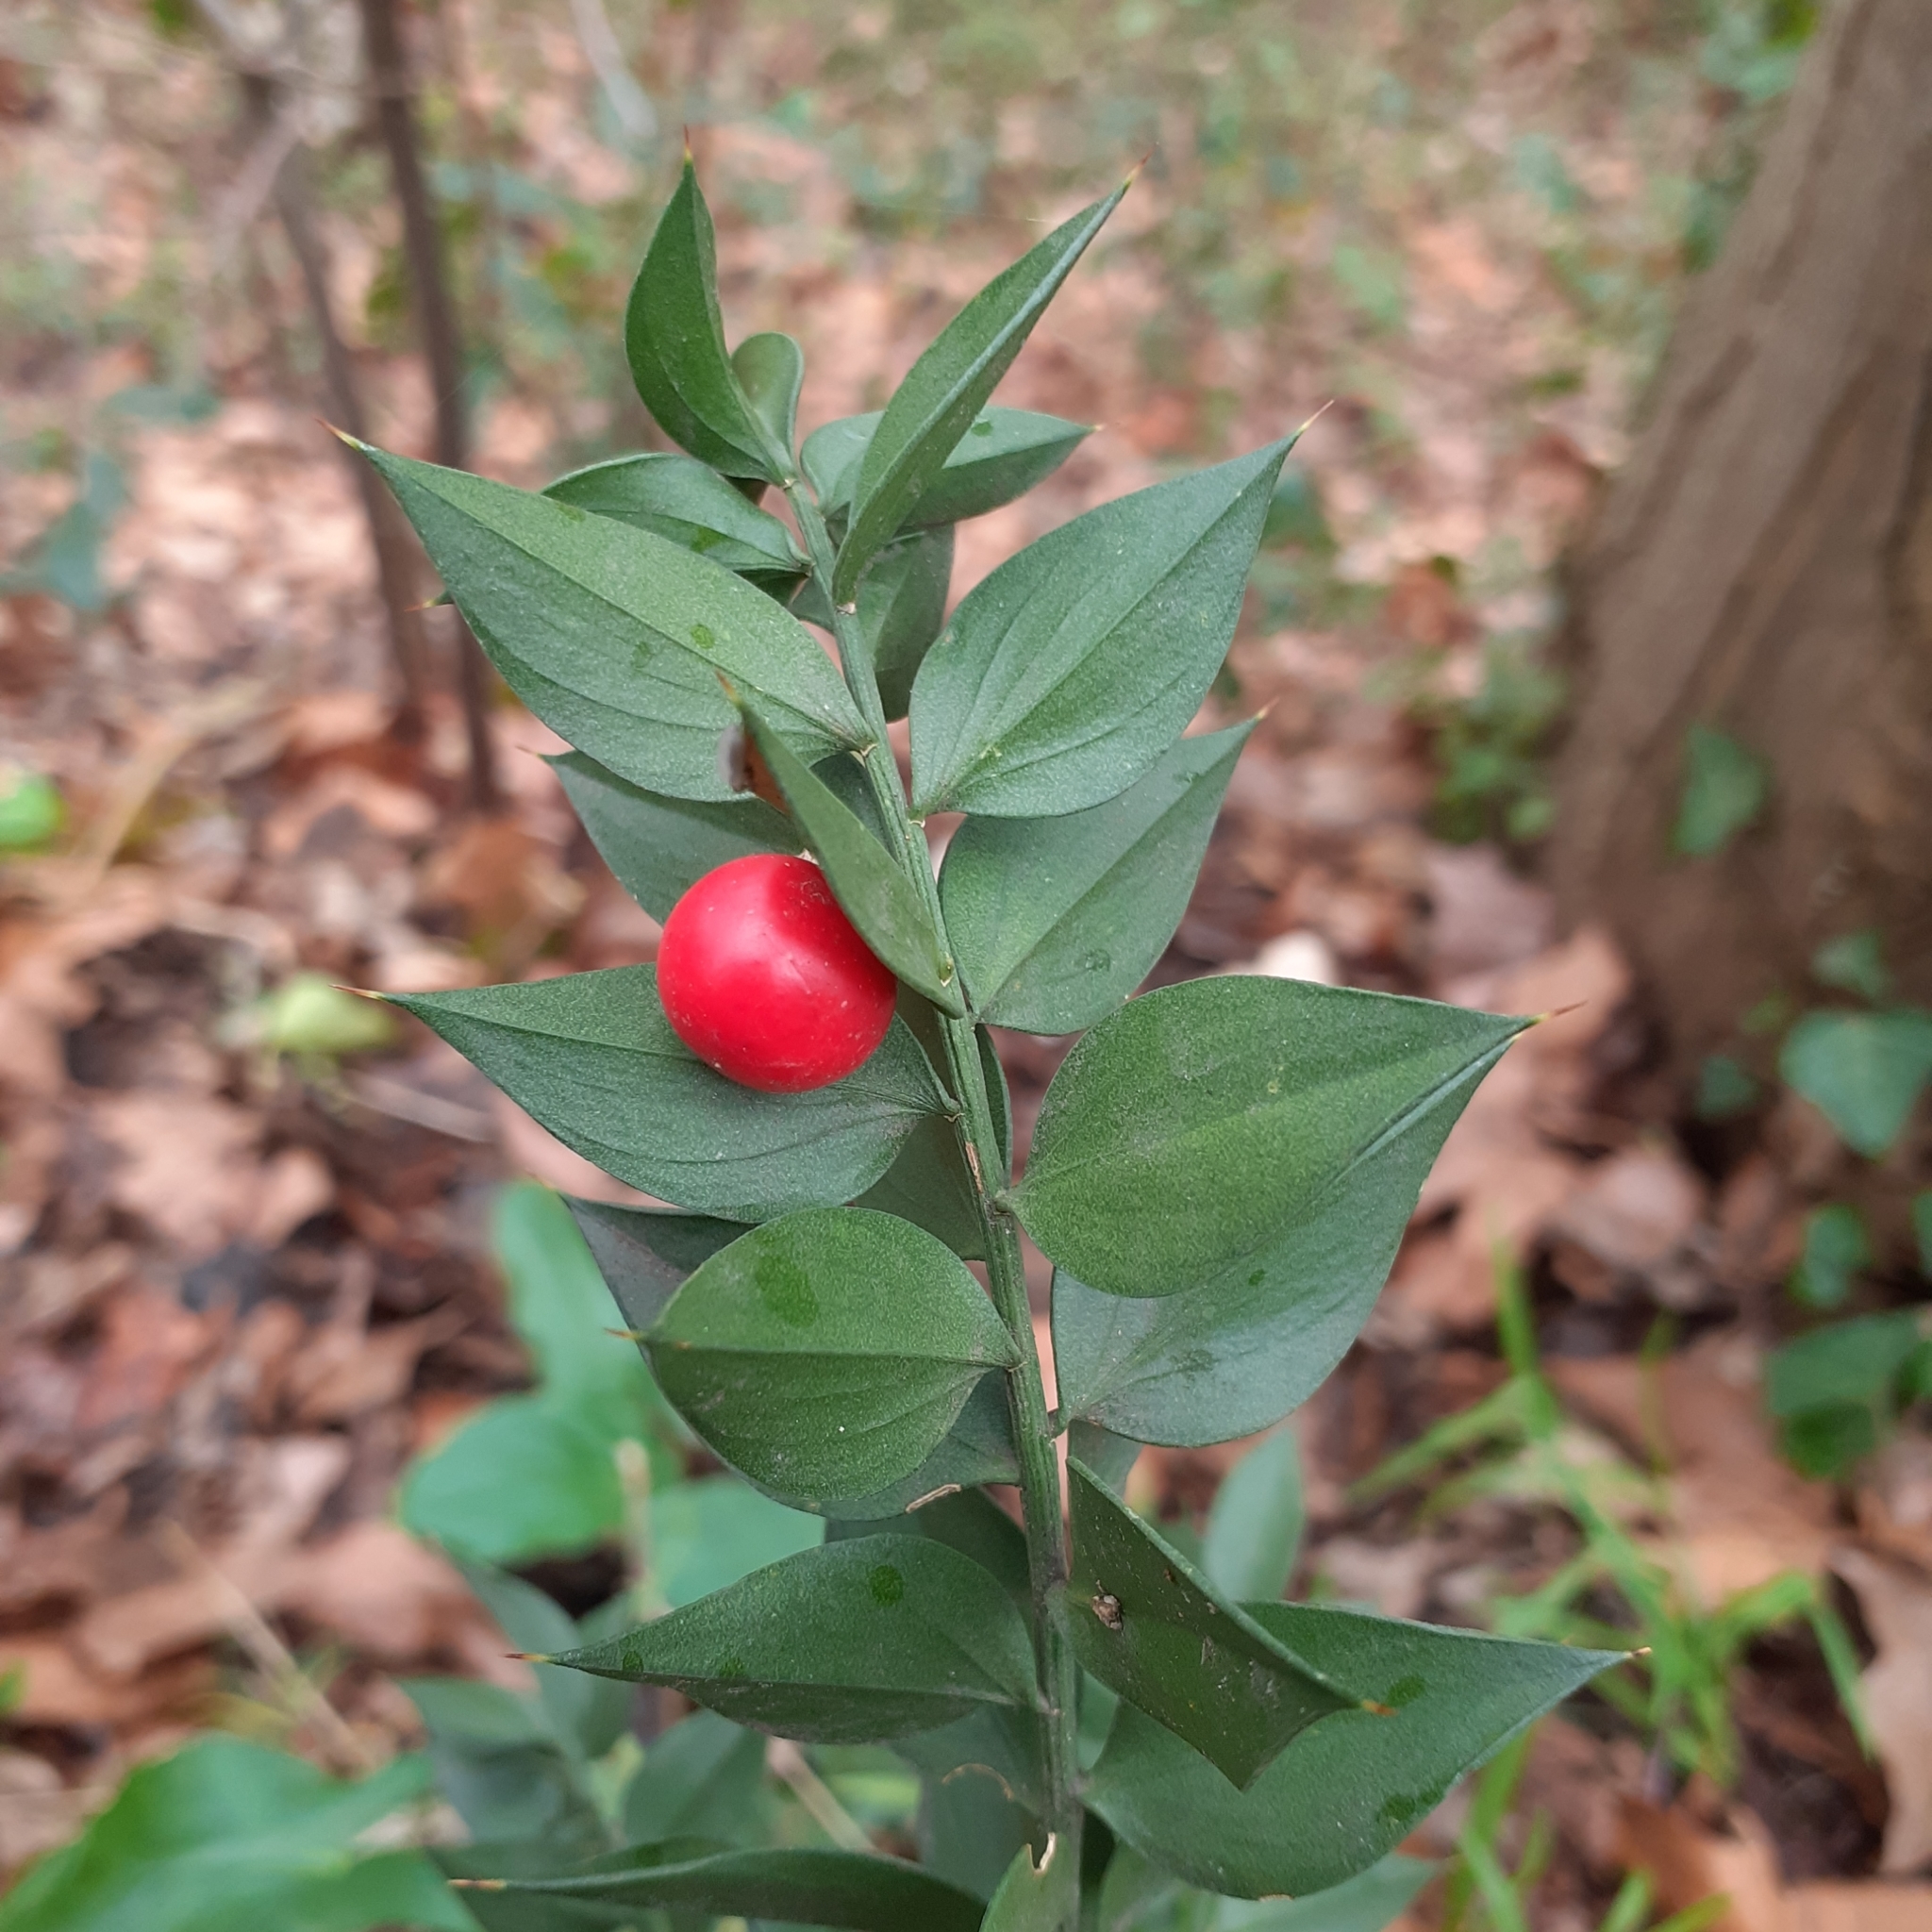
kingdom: Plantae
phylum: Tracheophyta
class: Liliopsida
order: Asparagales
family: Asparagaceae
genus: Ruscus
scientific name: Ruscus aculeatus
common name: Butcher's-broom
